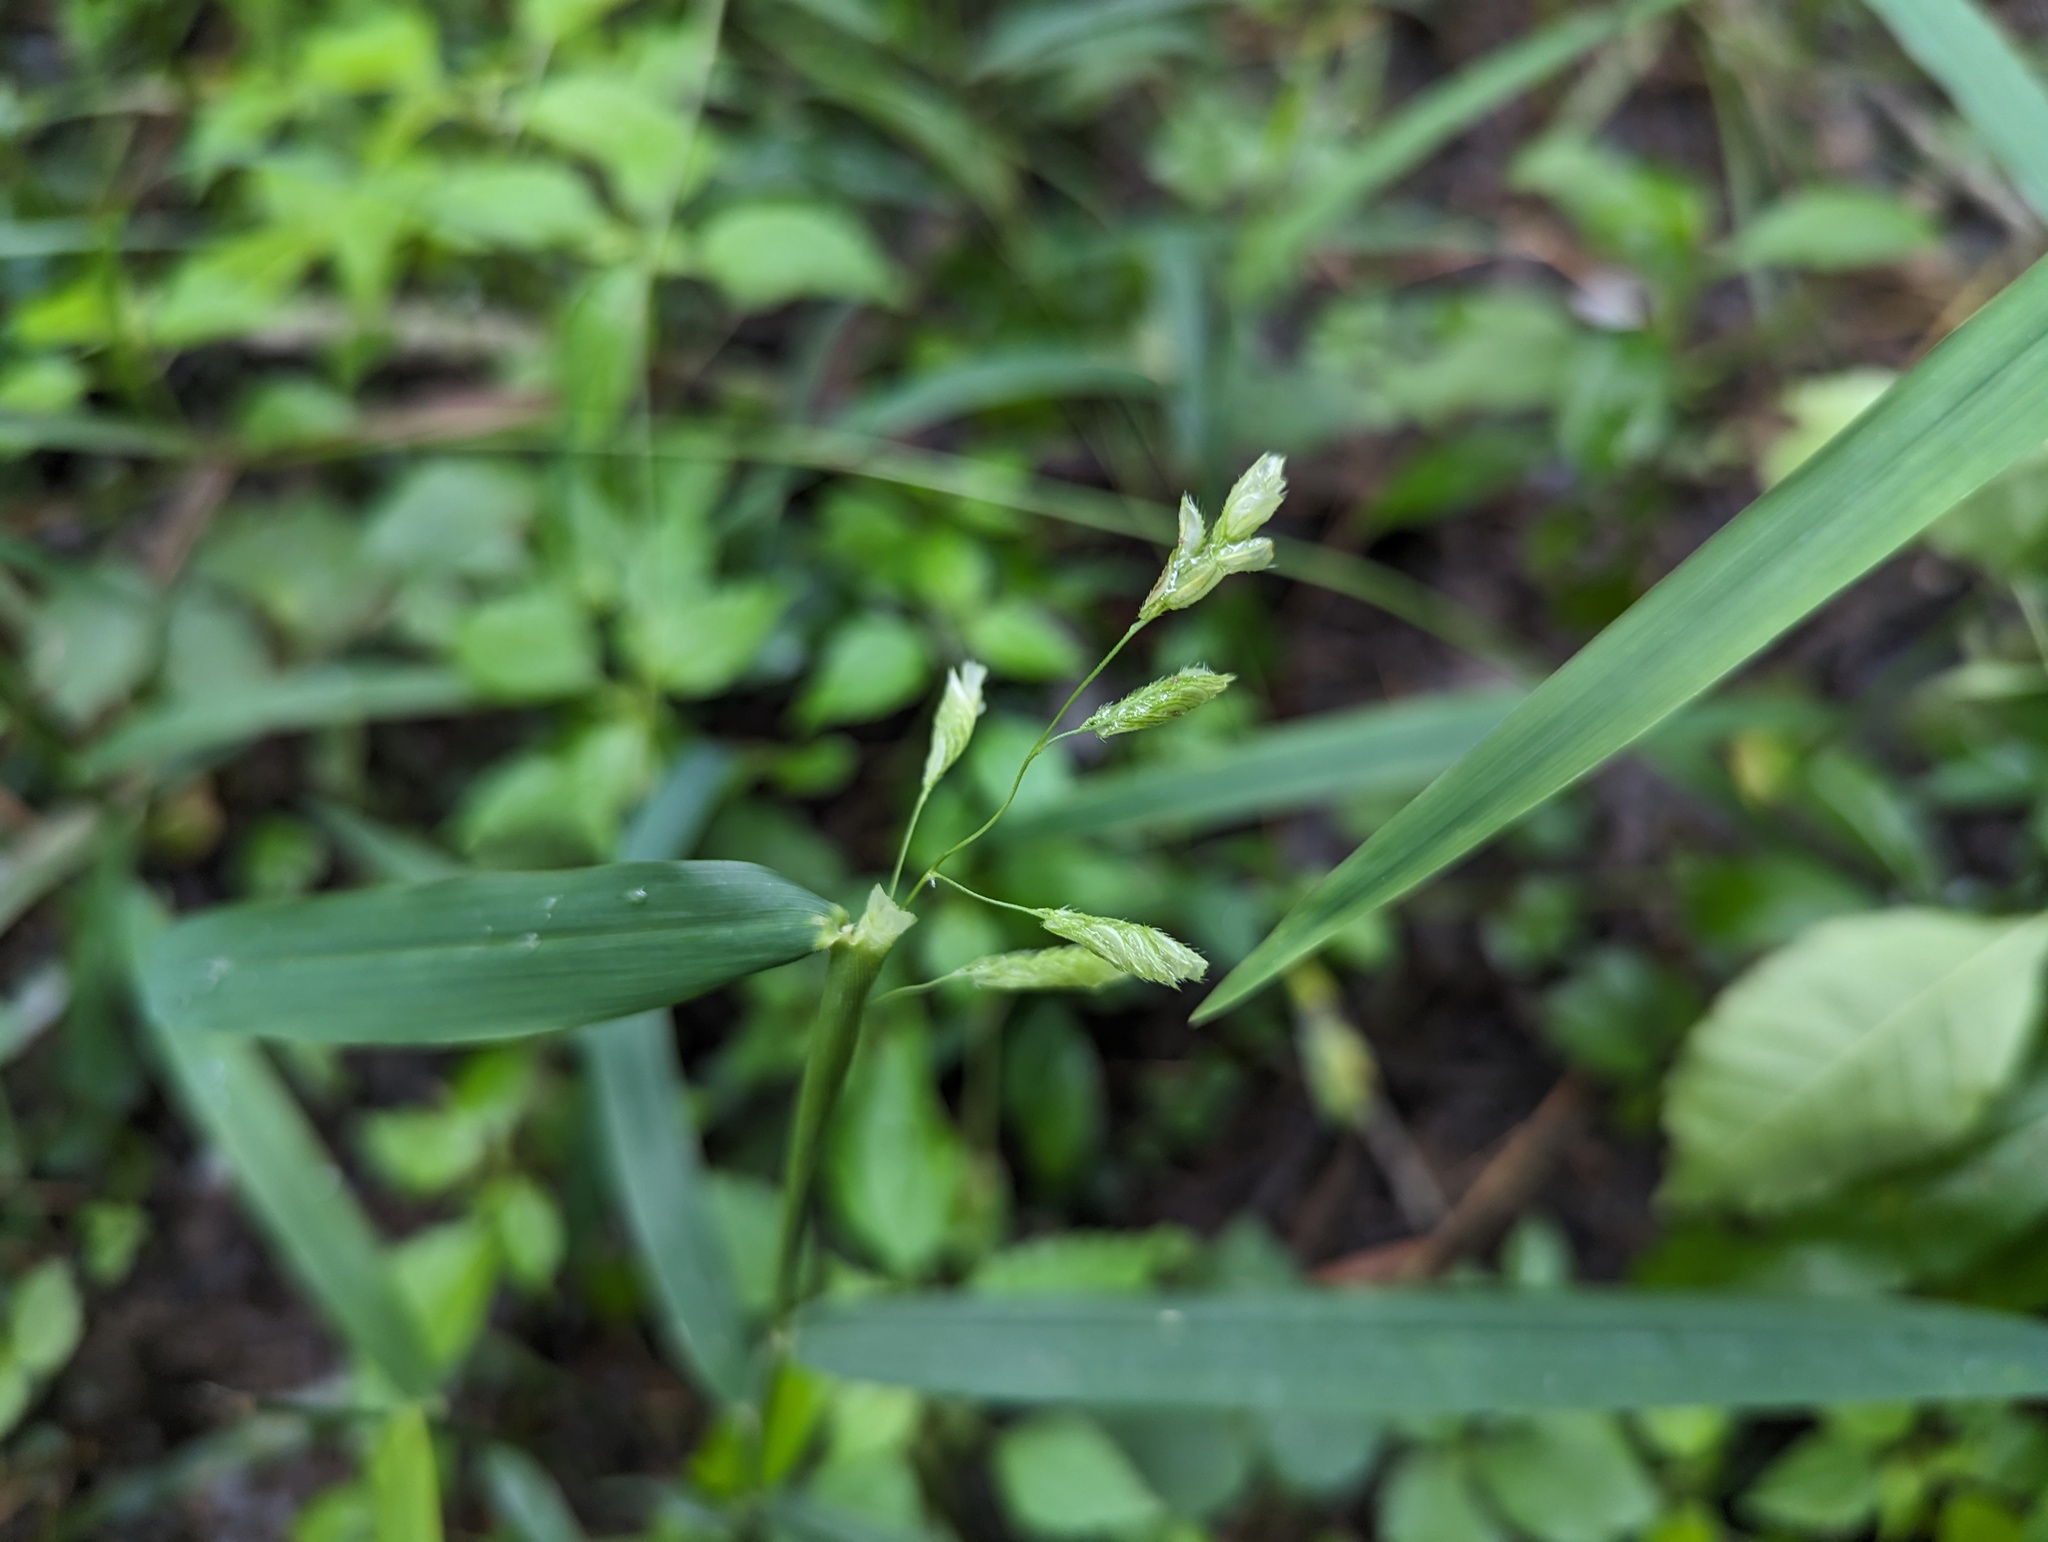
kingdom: Plantae
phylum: Tracheophyta
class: Liliopsida
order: Poales
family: Poaceae
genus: Leersia
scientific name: Leersia lenticularis
